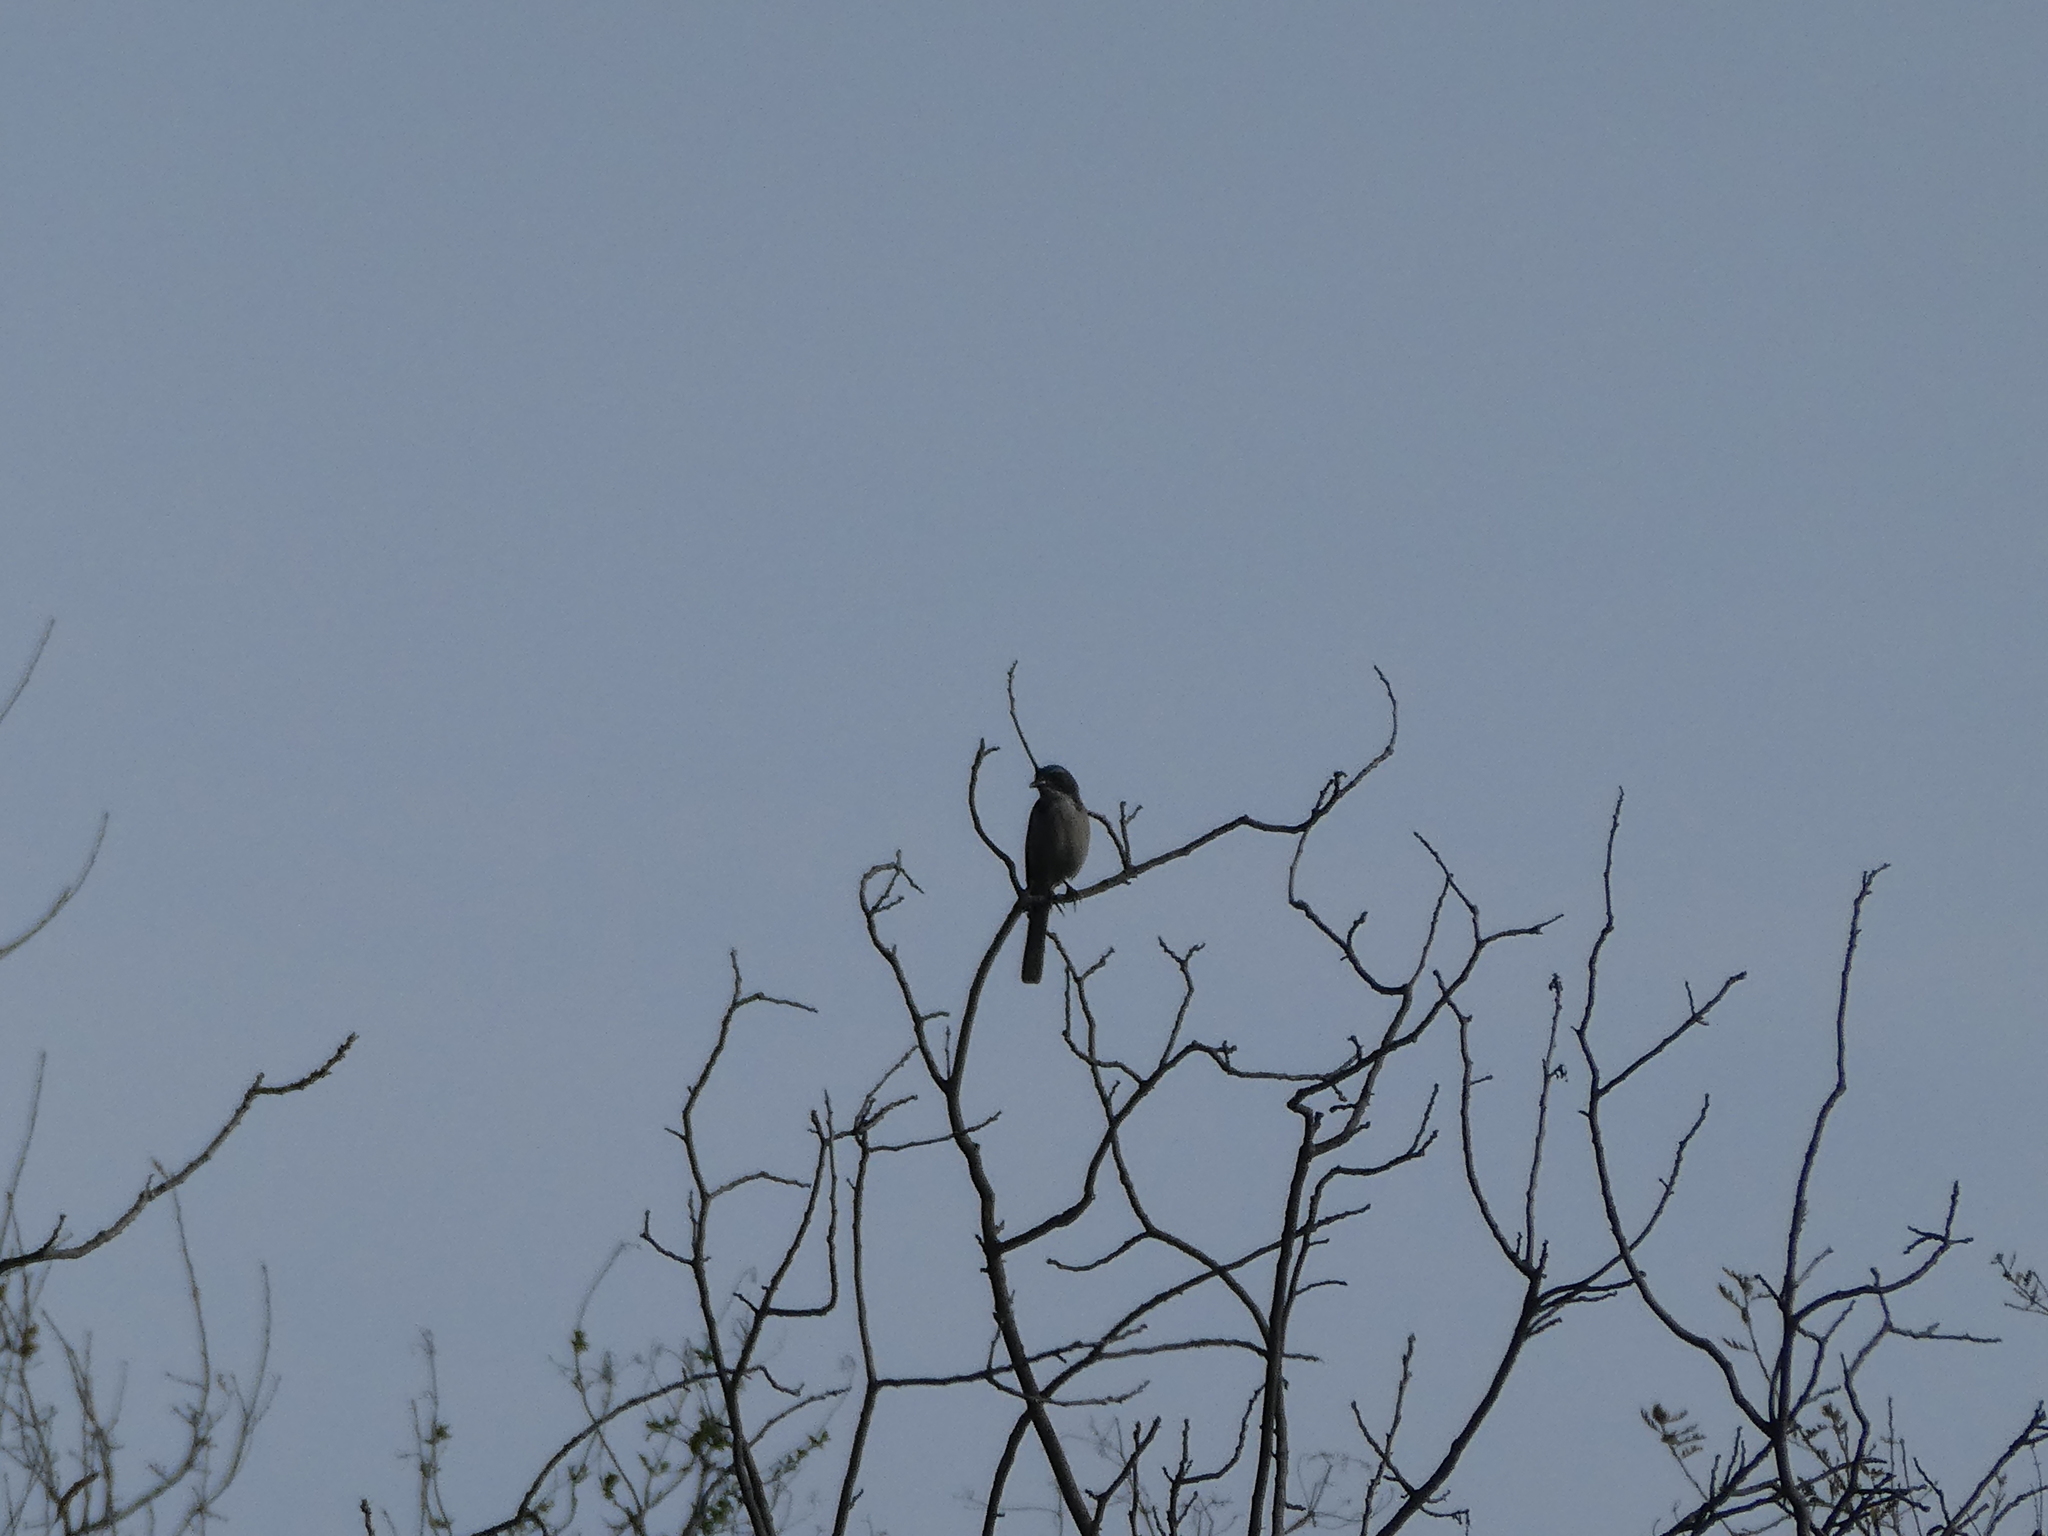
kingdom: Animalia
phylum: Chordata
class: Aves
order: Passeriformes
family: Corvidae
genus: Aphelocoma
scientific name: Aphelocoma californica
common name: California scrub-jay
